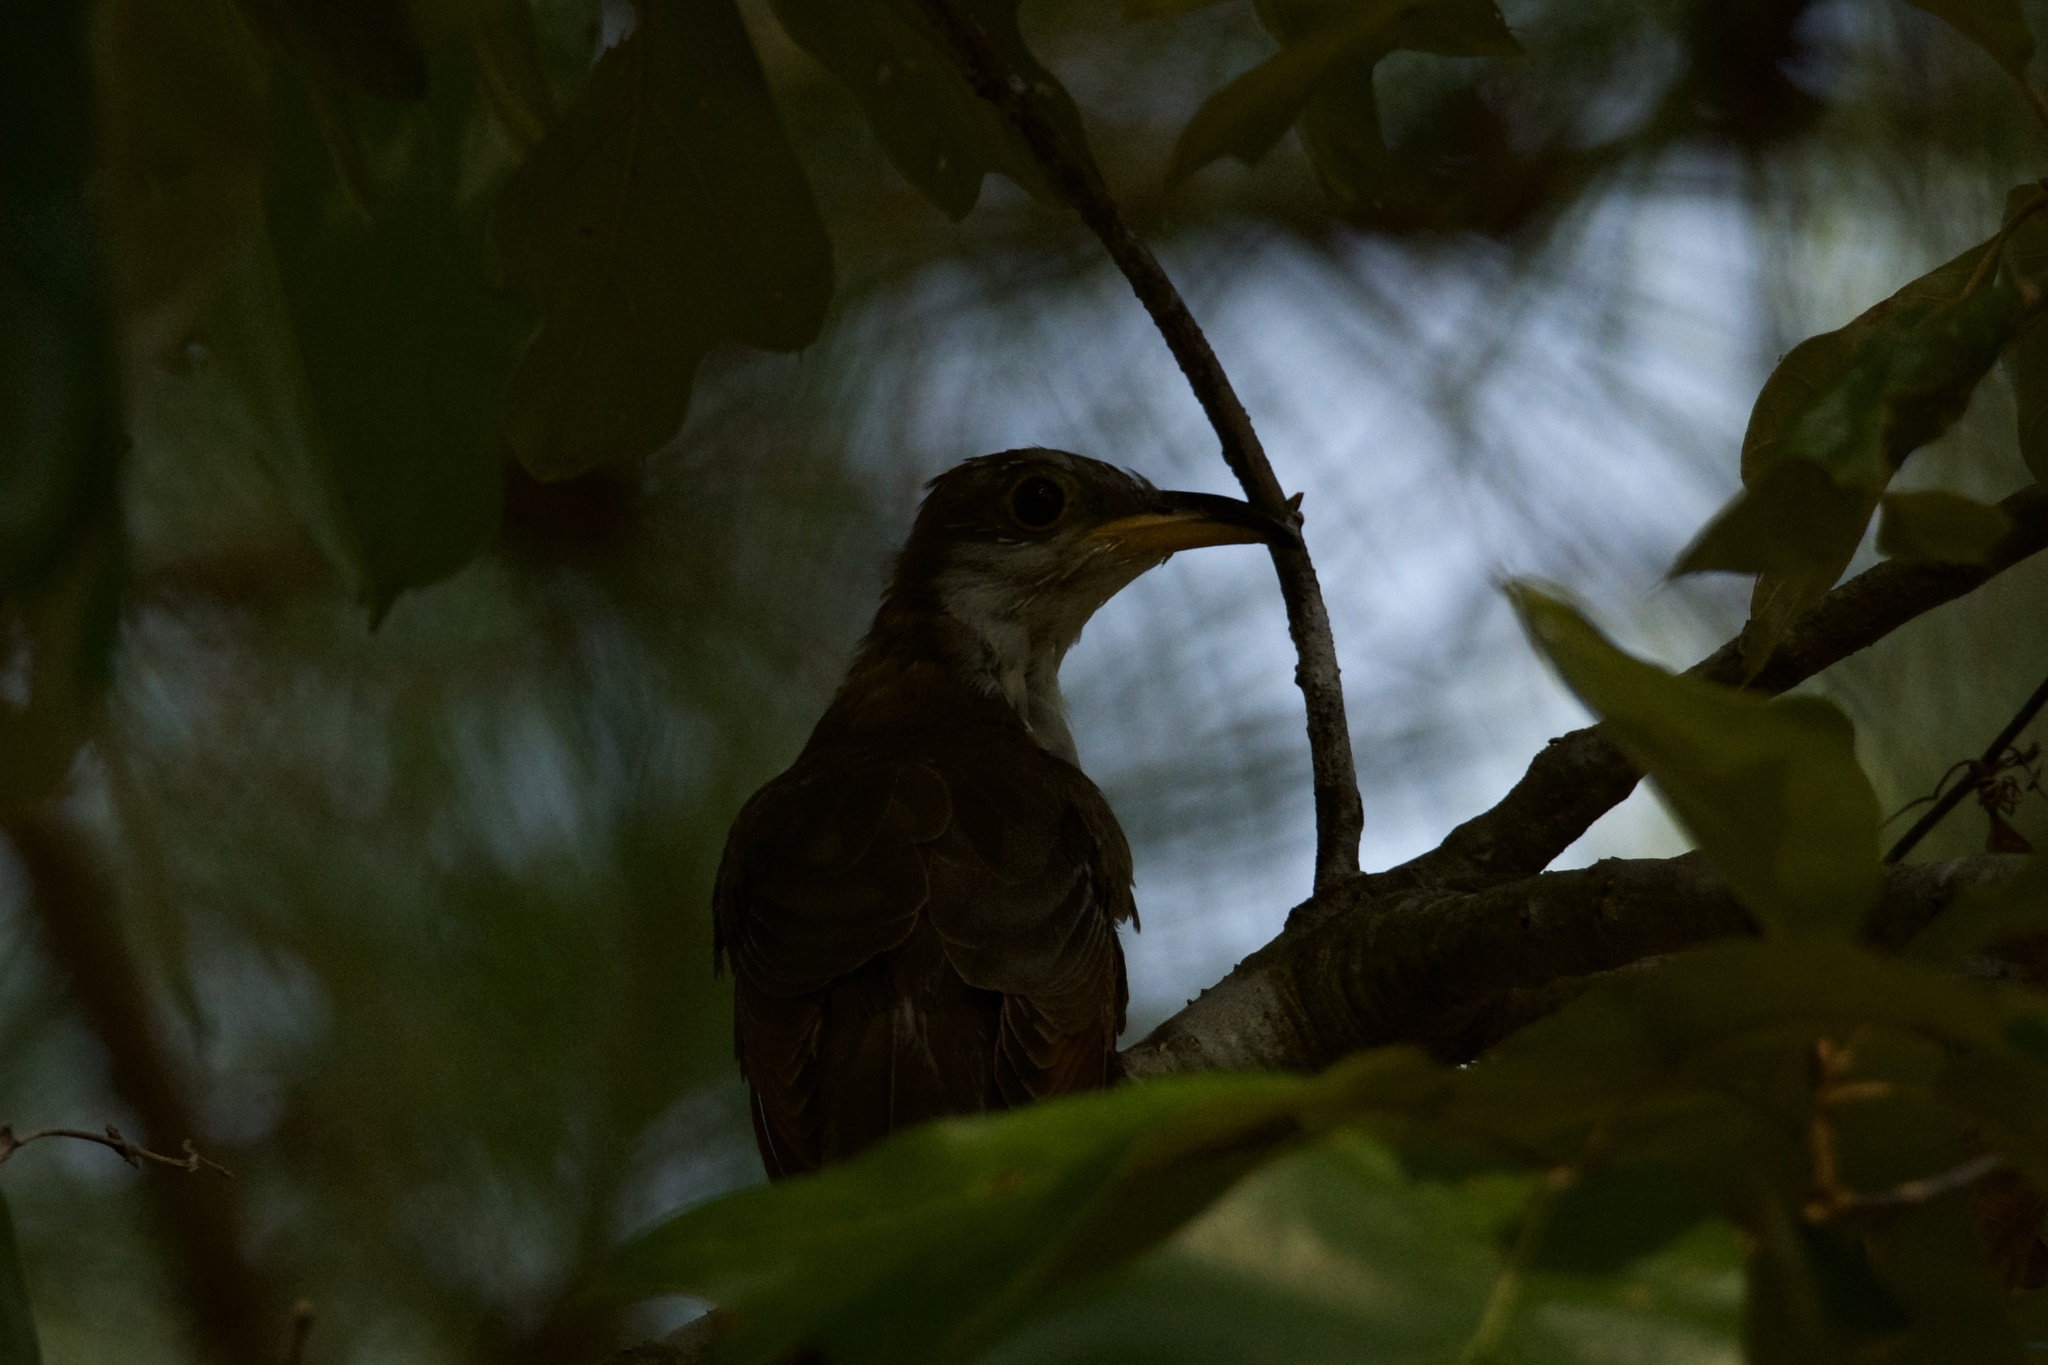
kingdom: Animalia
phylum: Chordata
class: Aves
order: Cuculiformes
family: Cuculidae
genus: Coccyzus
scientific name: Coccyzus americanus
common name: Yellow-billed cuckoo
